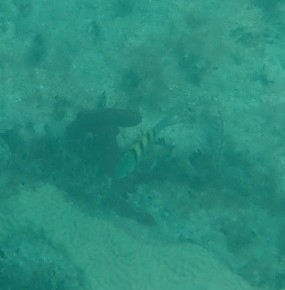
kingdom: Animalia
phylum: Chordata
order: Perciformes
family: Pomacentridae
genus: Abudefduf
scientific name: Abudefduf saxatilis
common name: Sergeant major
